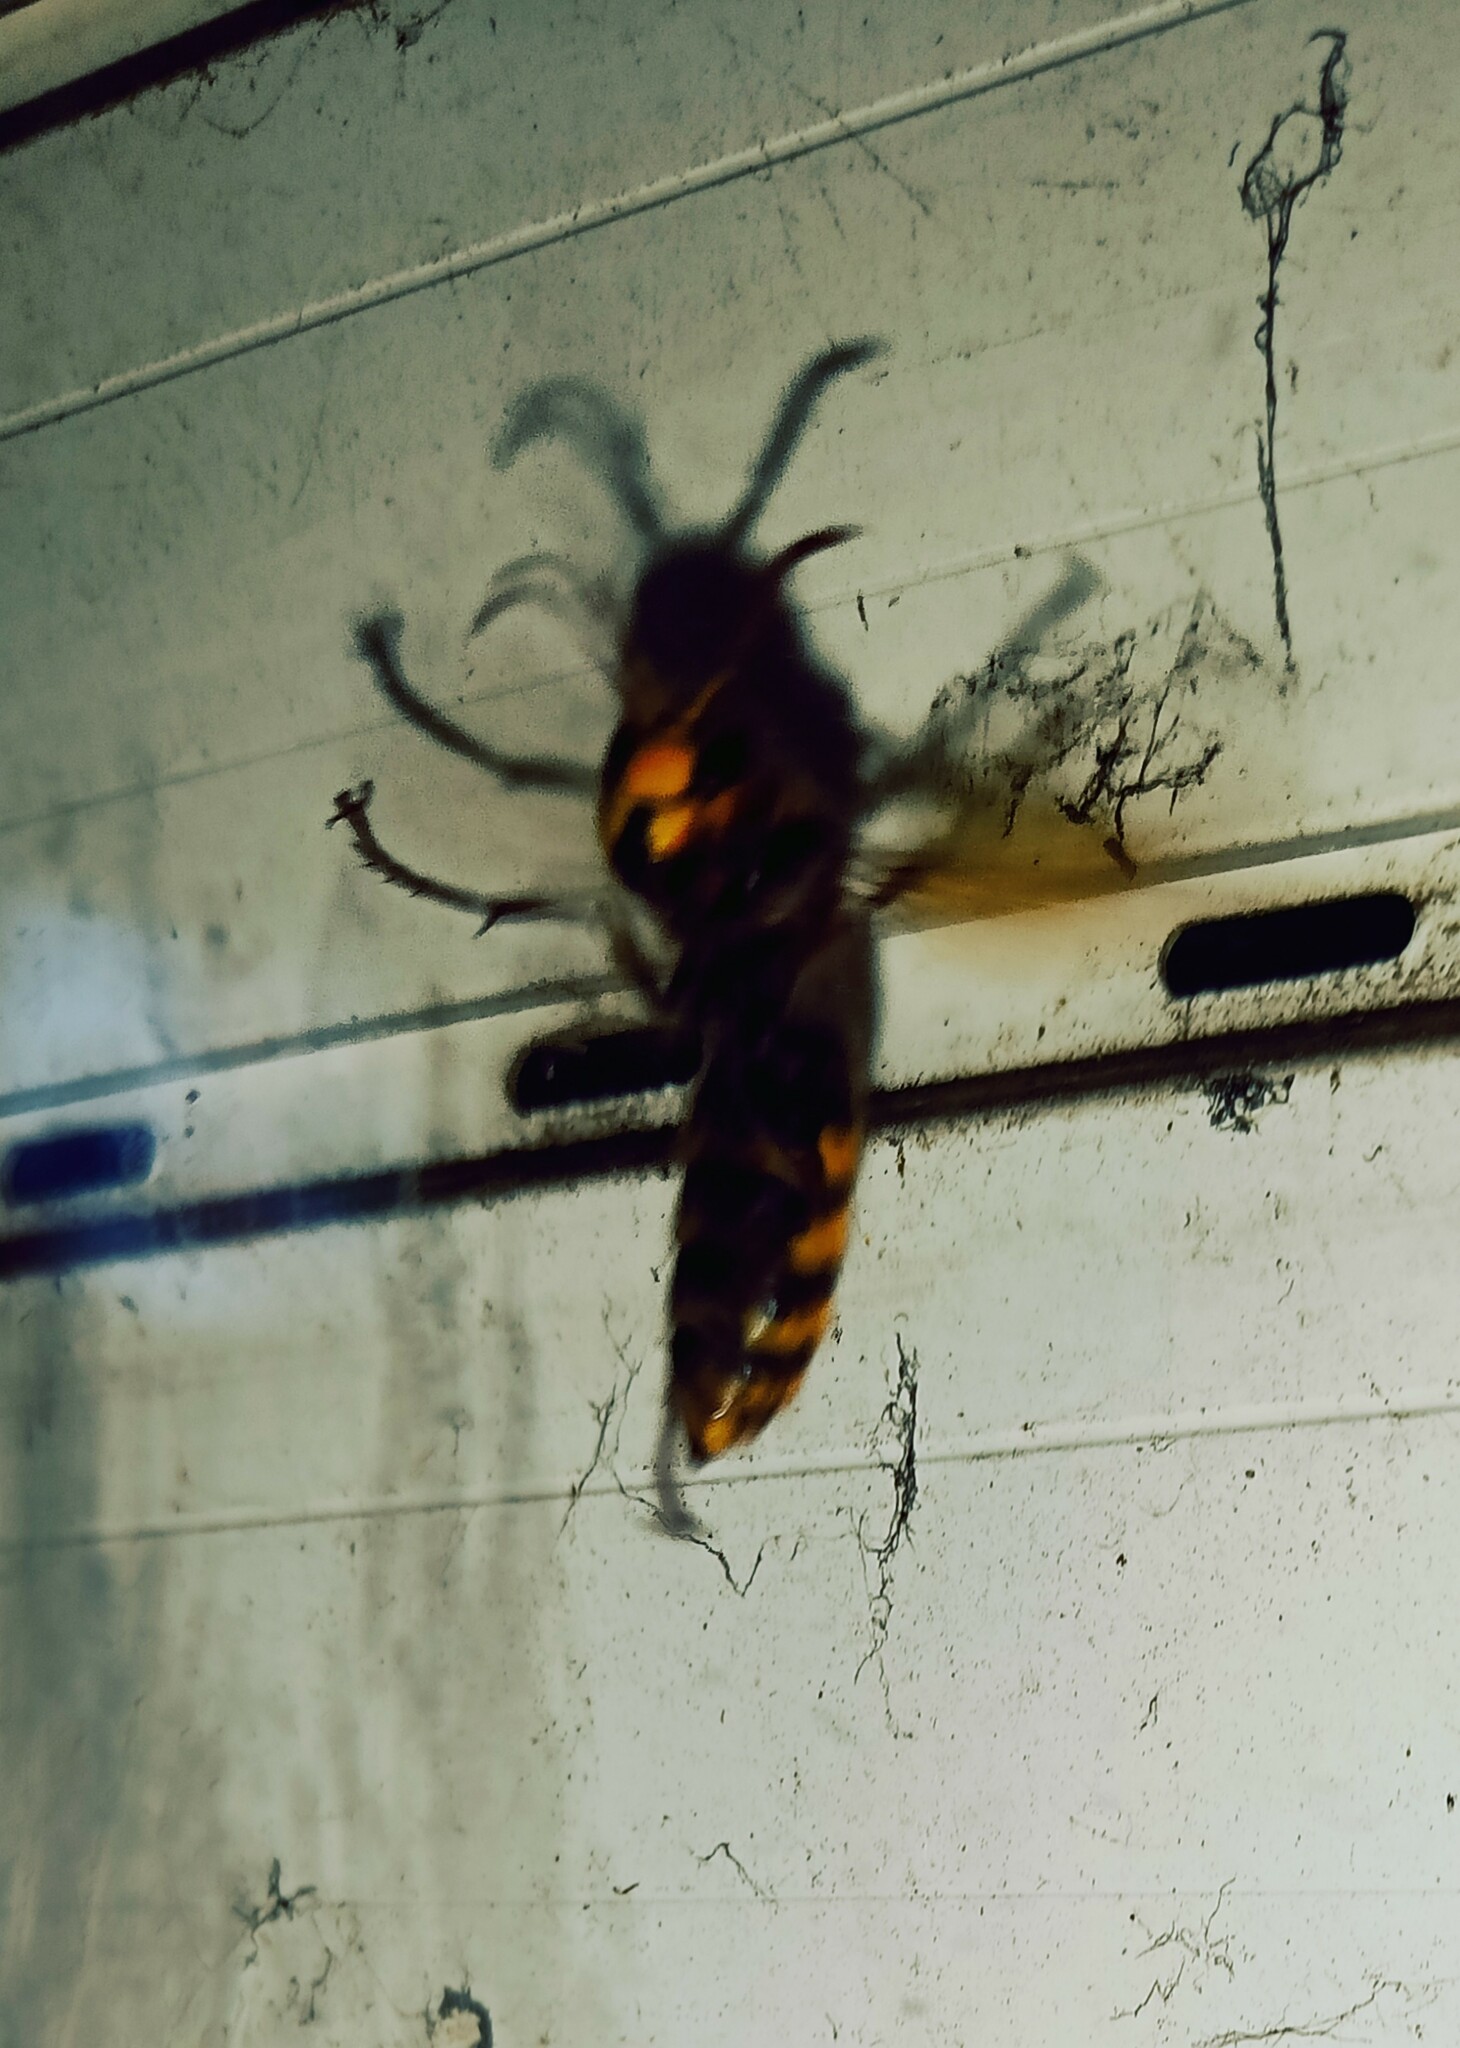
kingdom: Animalia
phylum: Arthropoda
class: Insecta
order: Hymenoptera
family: Vespidae
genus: Vespa
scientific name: Vespa crabro
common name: Hornet
